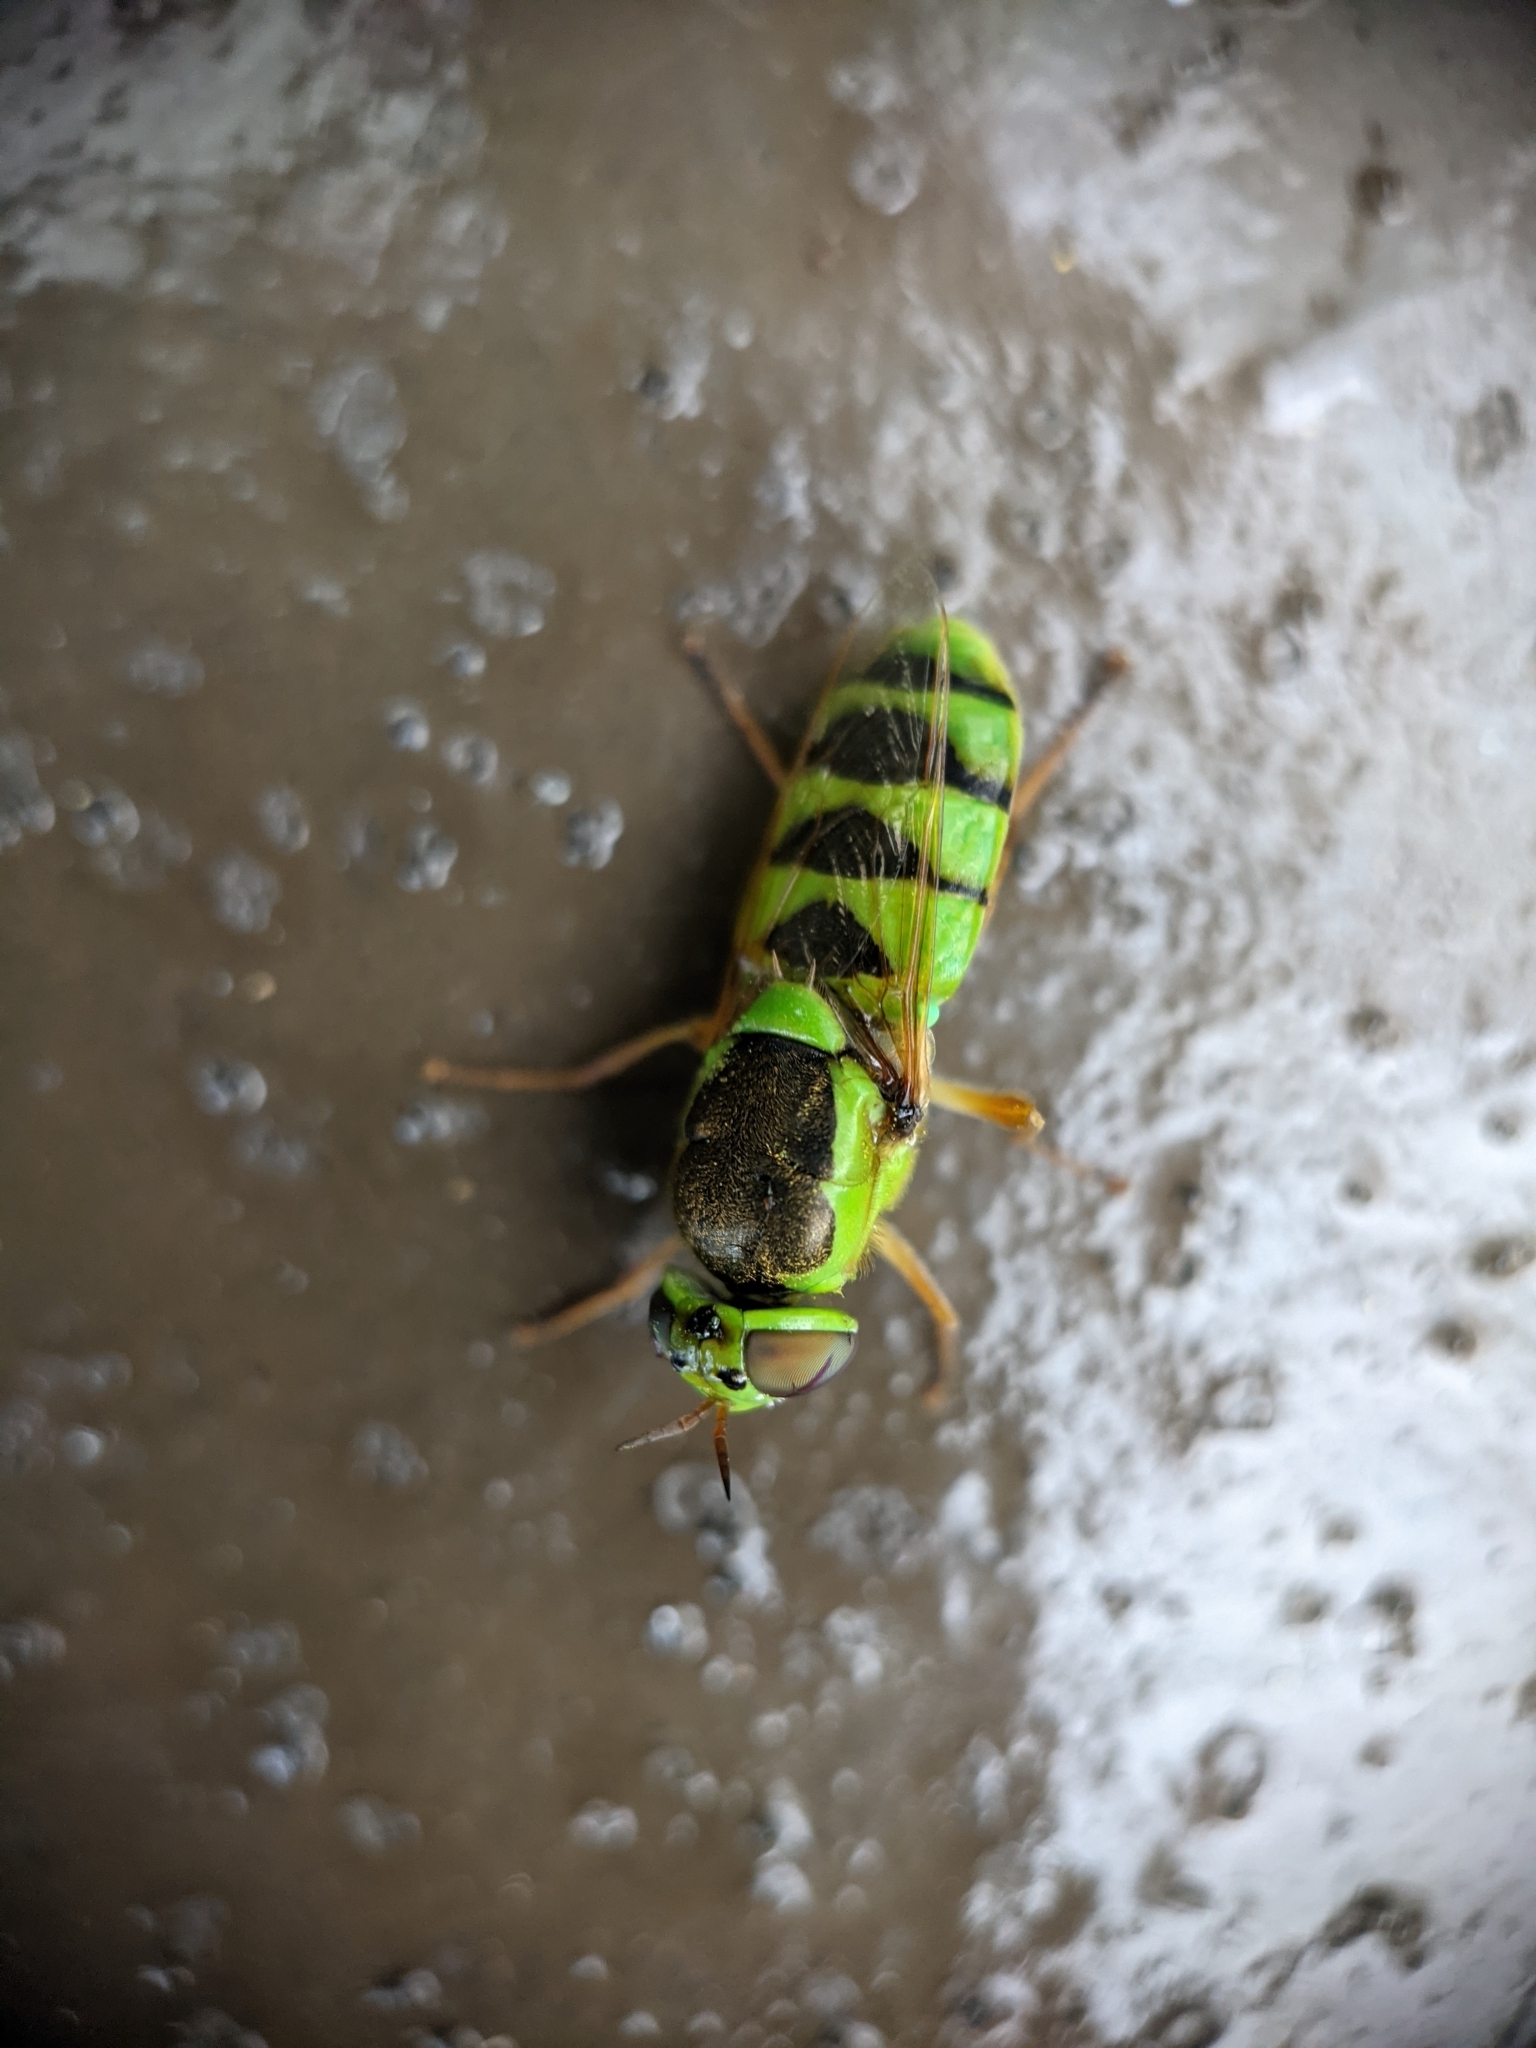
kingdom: Animalia
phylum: Arthropoda
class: Insecta
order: Diptera
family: Stratiomyidae
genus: Odontomyia
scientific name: Odontomyia cincta
